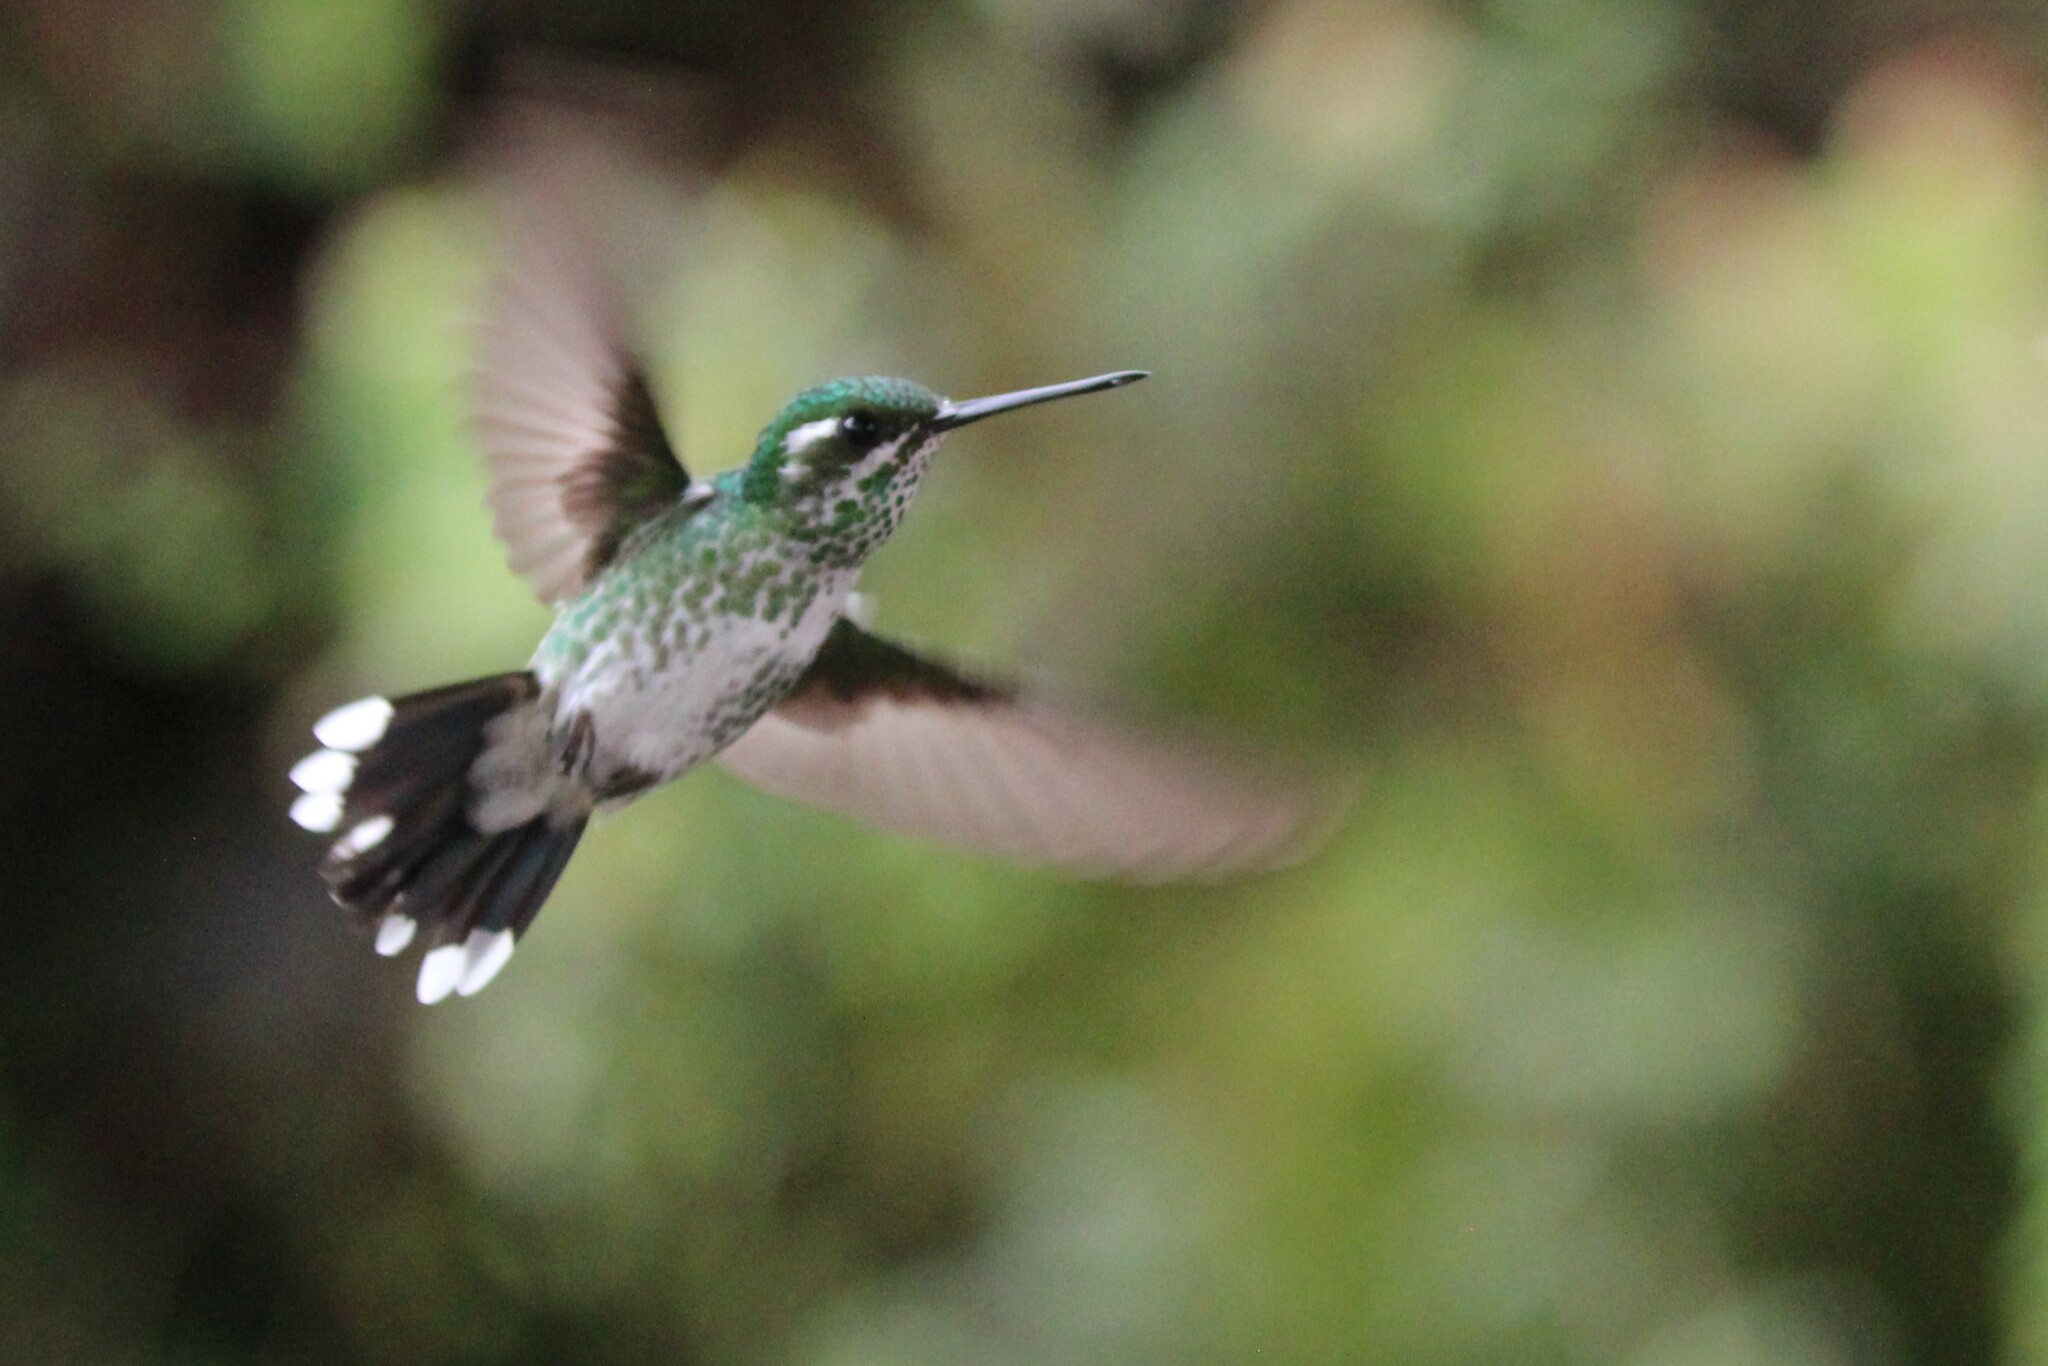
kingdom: Animalia
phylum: Chordata
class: Aves
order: Apodiformes
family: Trochilidae
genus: Urosticte
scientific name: Urosticte benjamini
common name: Purple-bibbed whitetip
